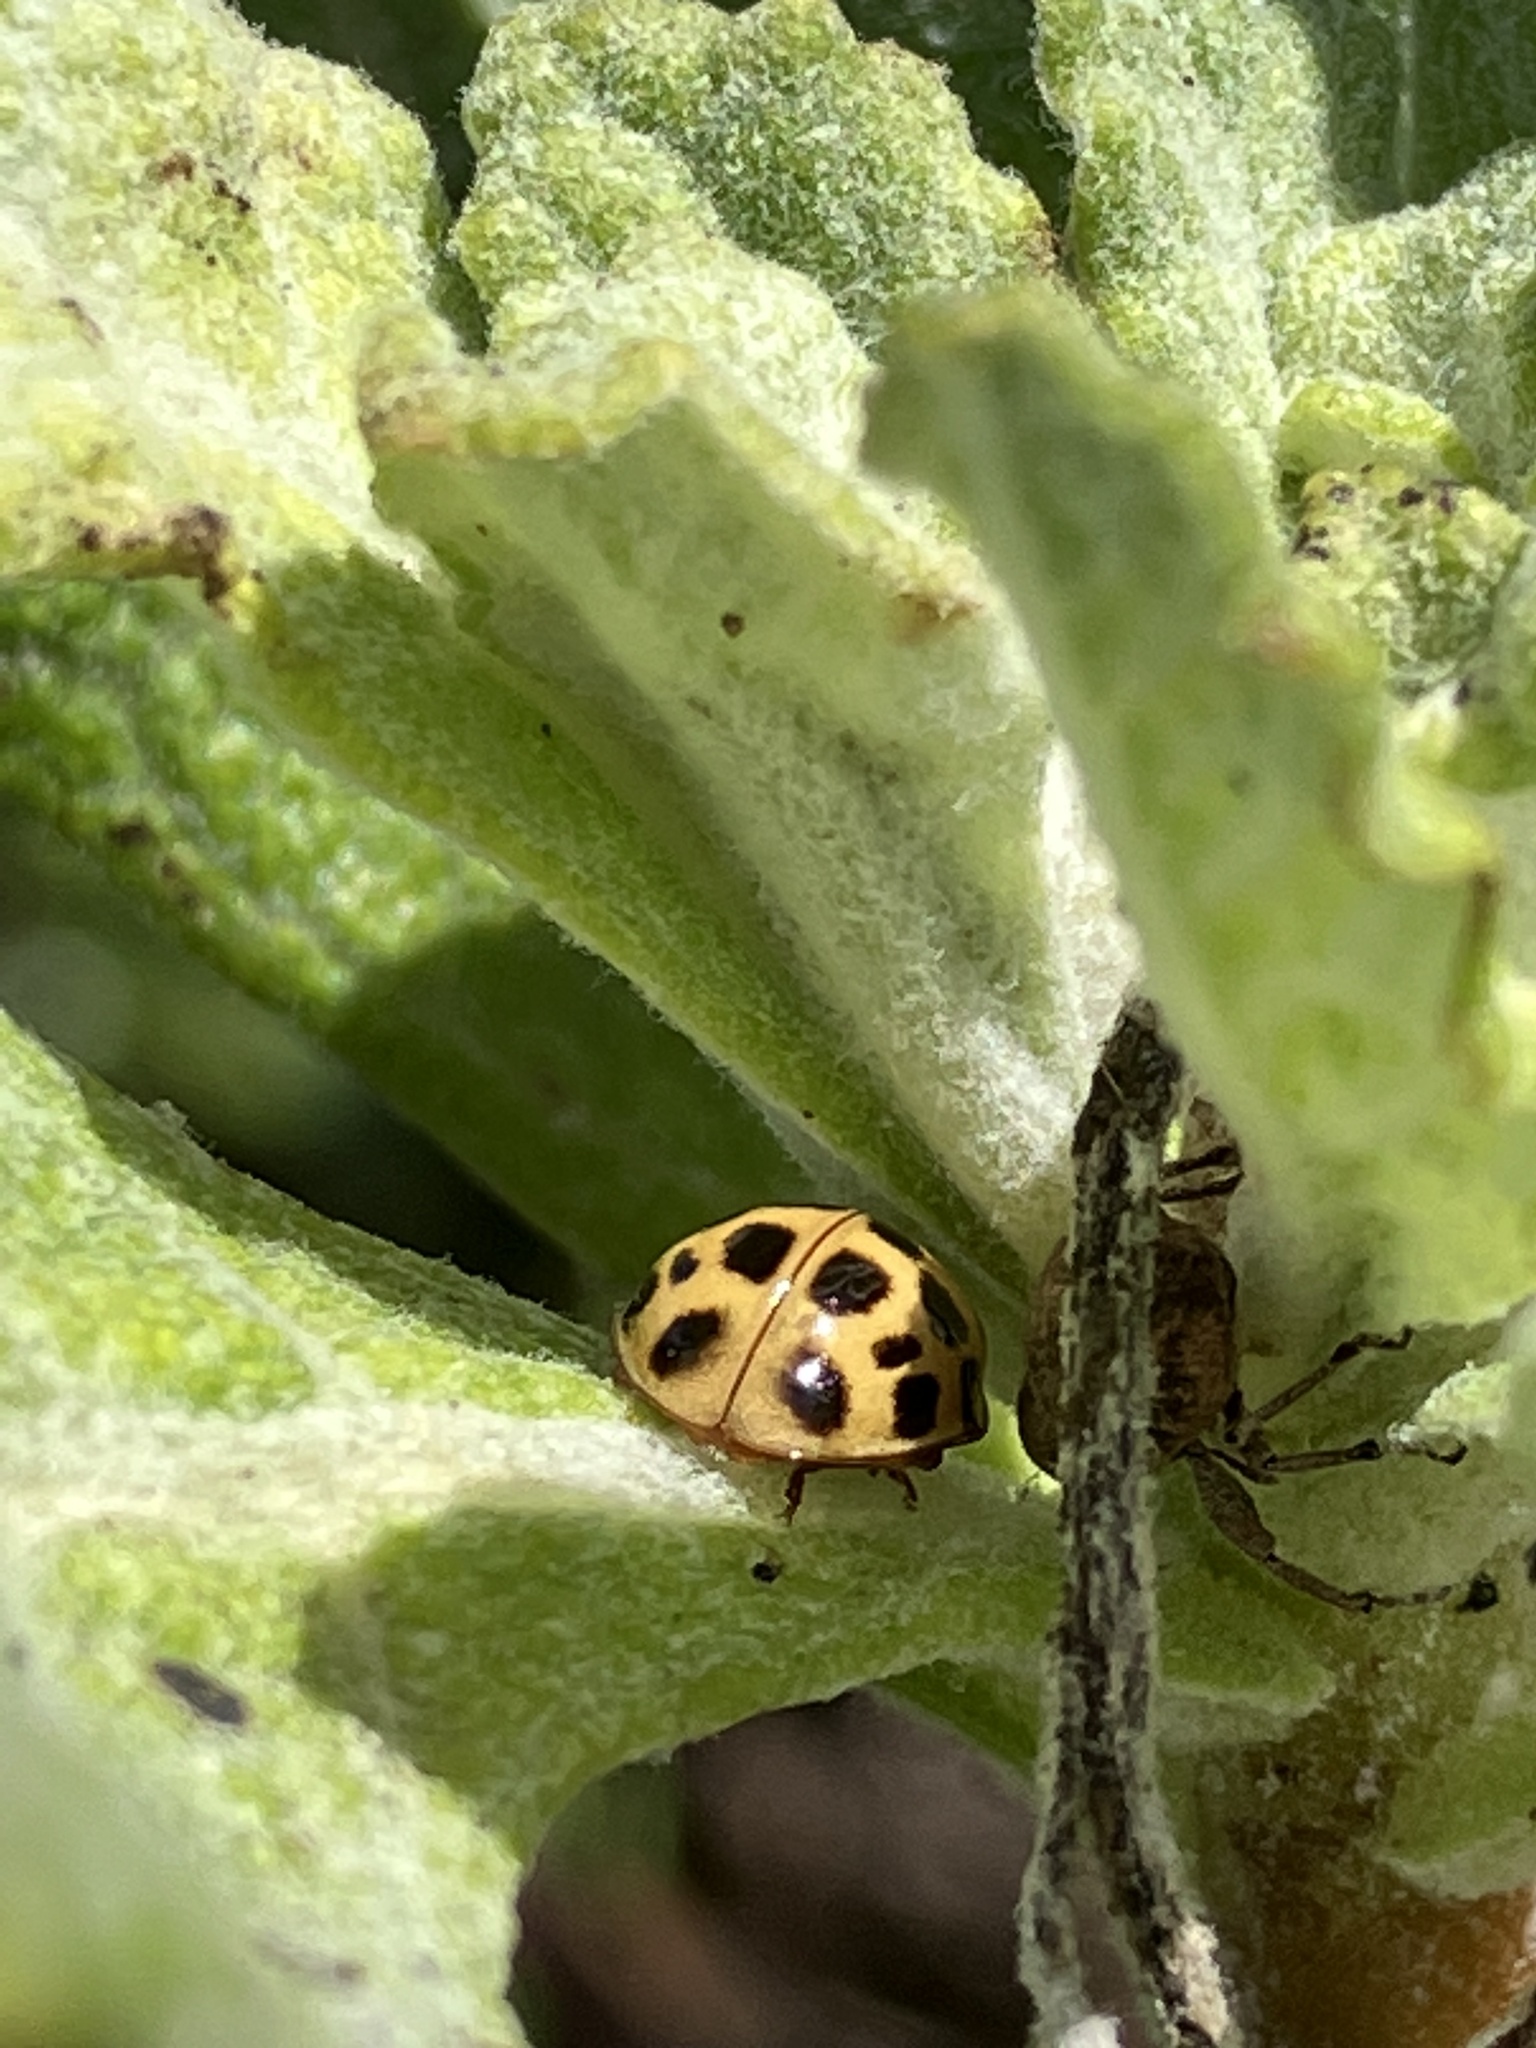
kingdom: Animalia
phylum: Arthropoda
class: Insecta
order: Coleoptera
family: Coccinellidae
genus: Harmonia
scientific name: Harmonia axyridis
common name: Harlequin ladybird
